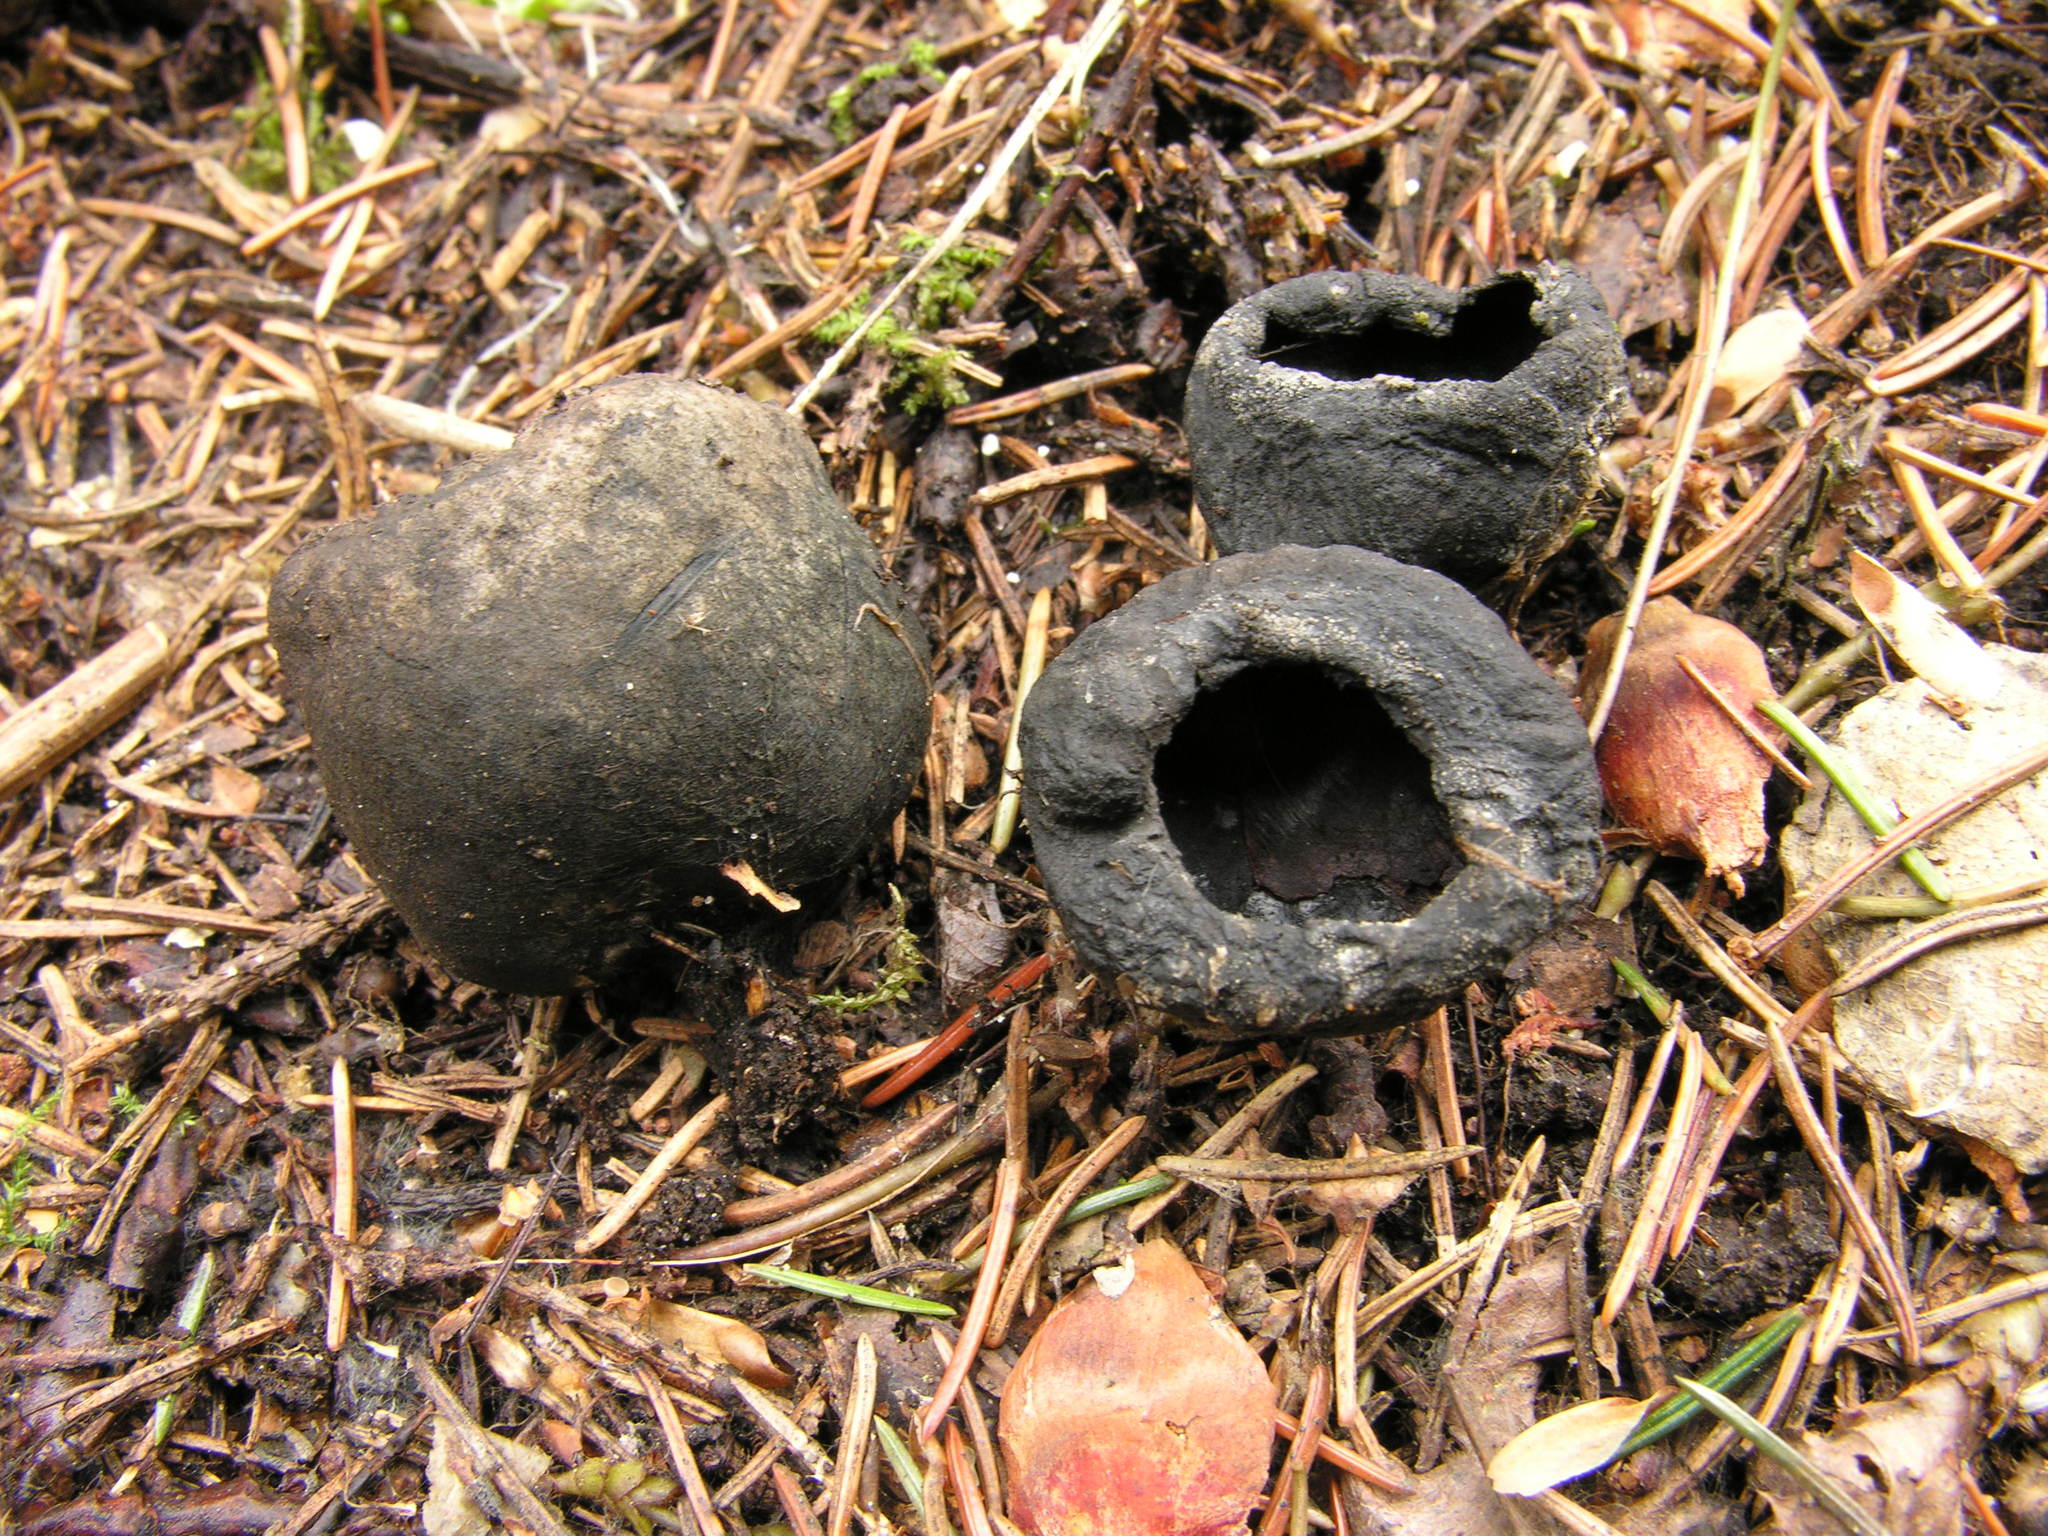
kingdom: Fungi
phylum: Ascomycota
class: Pezizomycetes
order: Pezizales
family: Sarcosomataceae
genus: Urnula
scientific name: Urnula hiemalis
